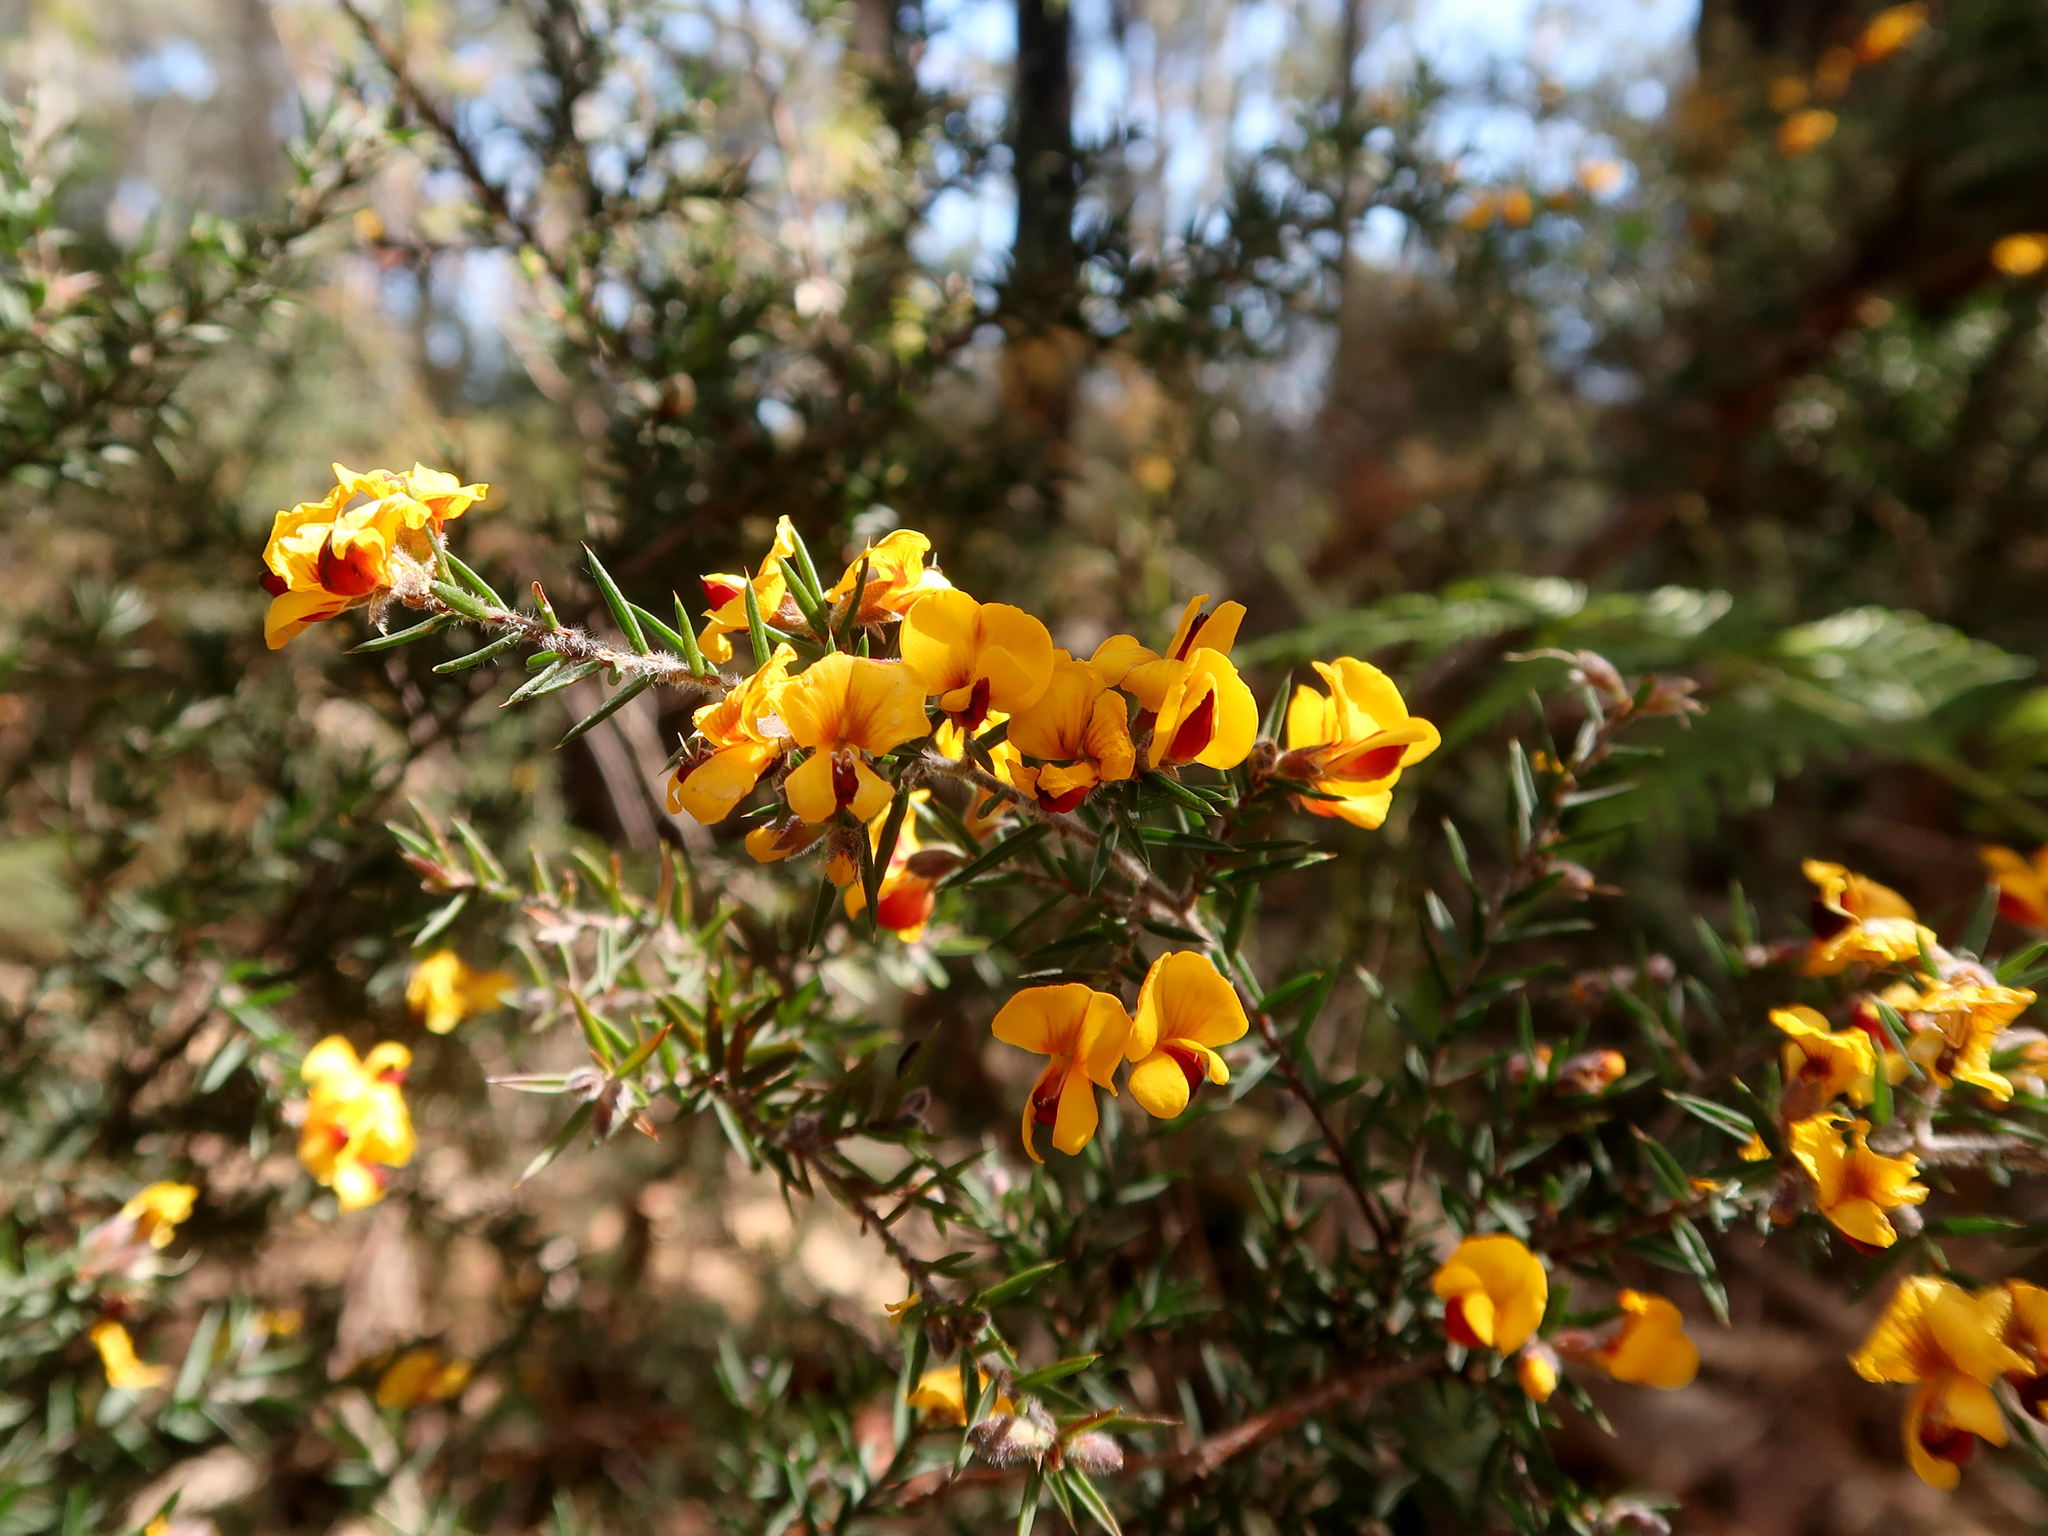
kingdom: Plantae
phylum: Tracheophyta
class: Magnoliopsida
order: Fabales
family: Fabaceae
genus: Pultenaea
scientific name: Pultenaea juniperina
